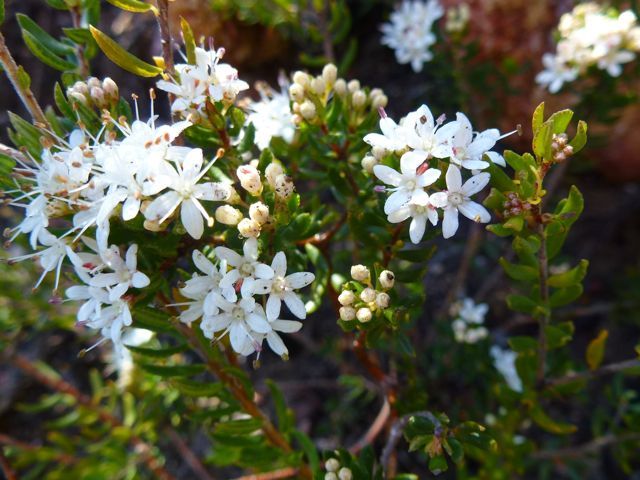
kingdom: Plantae
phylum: Tracheophyta
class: Magnoliopsida
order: Sapindales
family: Rutaceae
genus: Agathosma
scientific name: Agathosma mundtii
